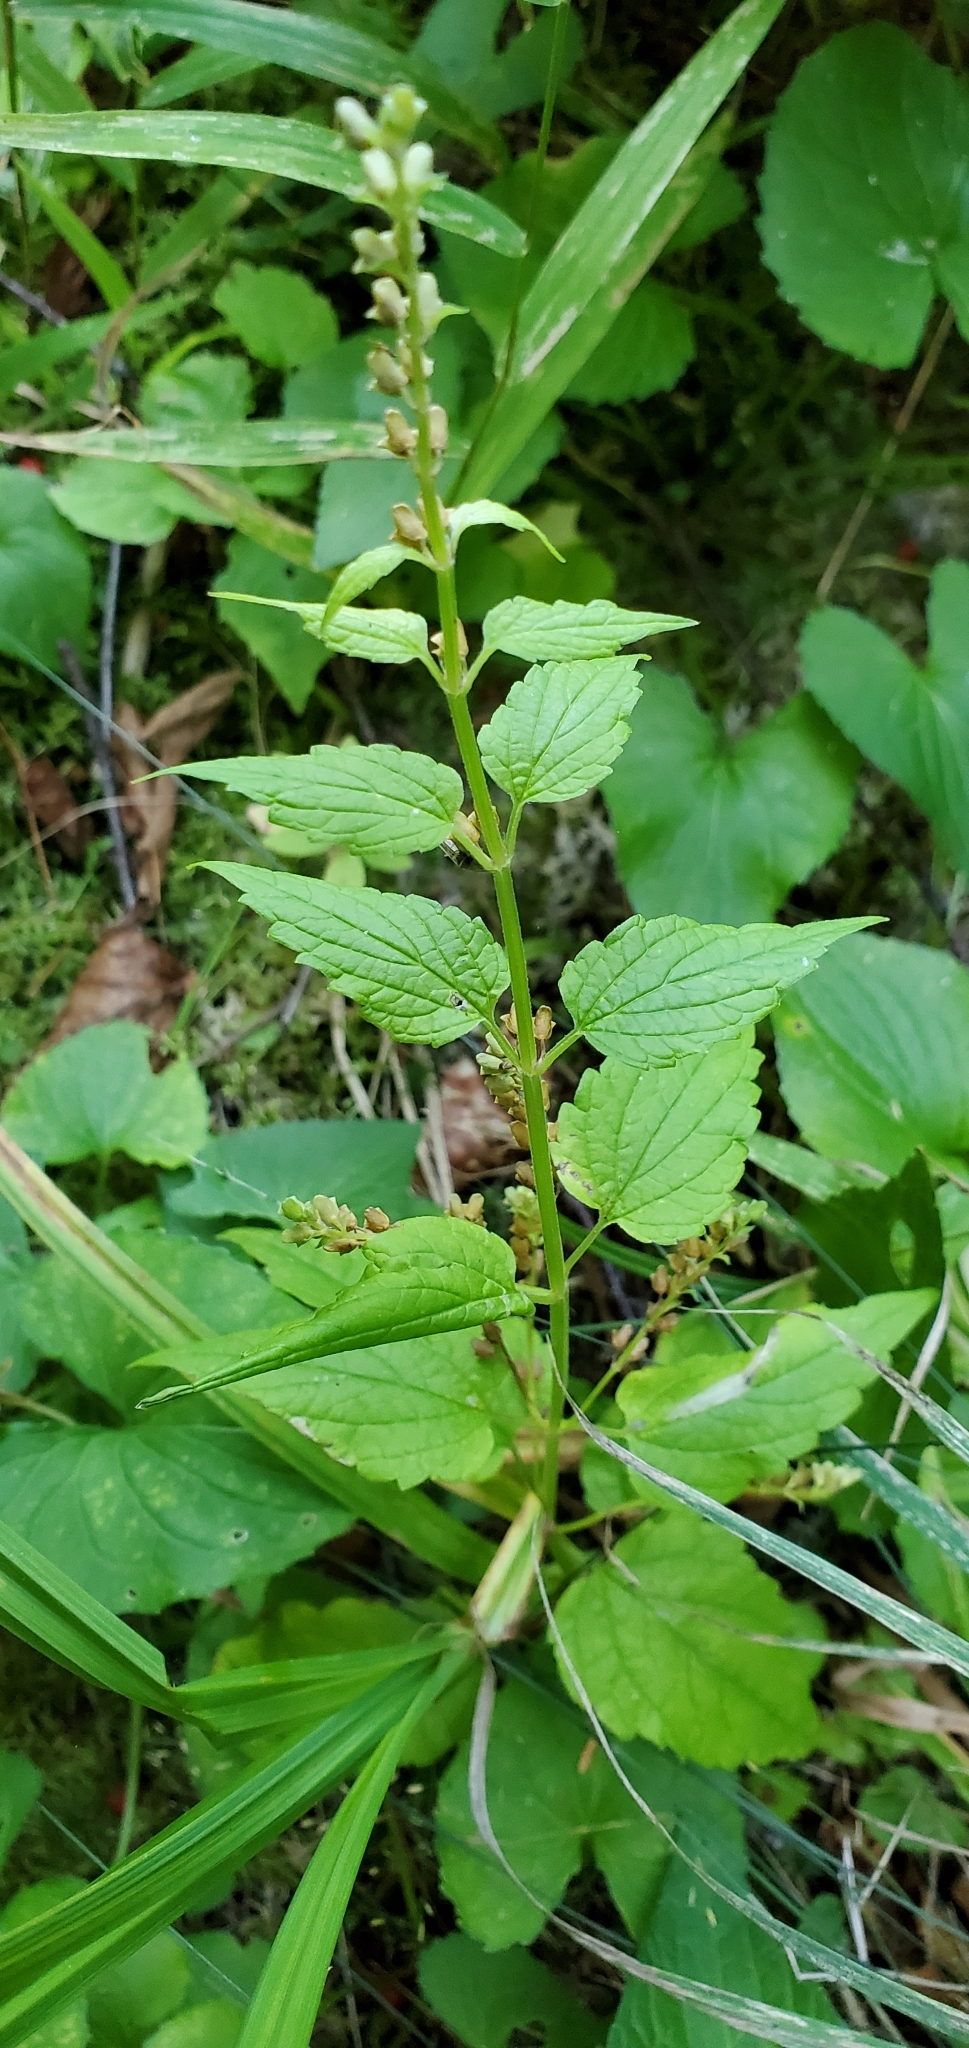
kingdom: Plantae
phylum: Tracheophyta
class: Magnoliopsida
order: Lamiales
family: Lamiaceae
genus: Scutellaria
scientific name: Scutellaria lateriflora
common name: Blue skullcap
